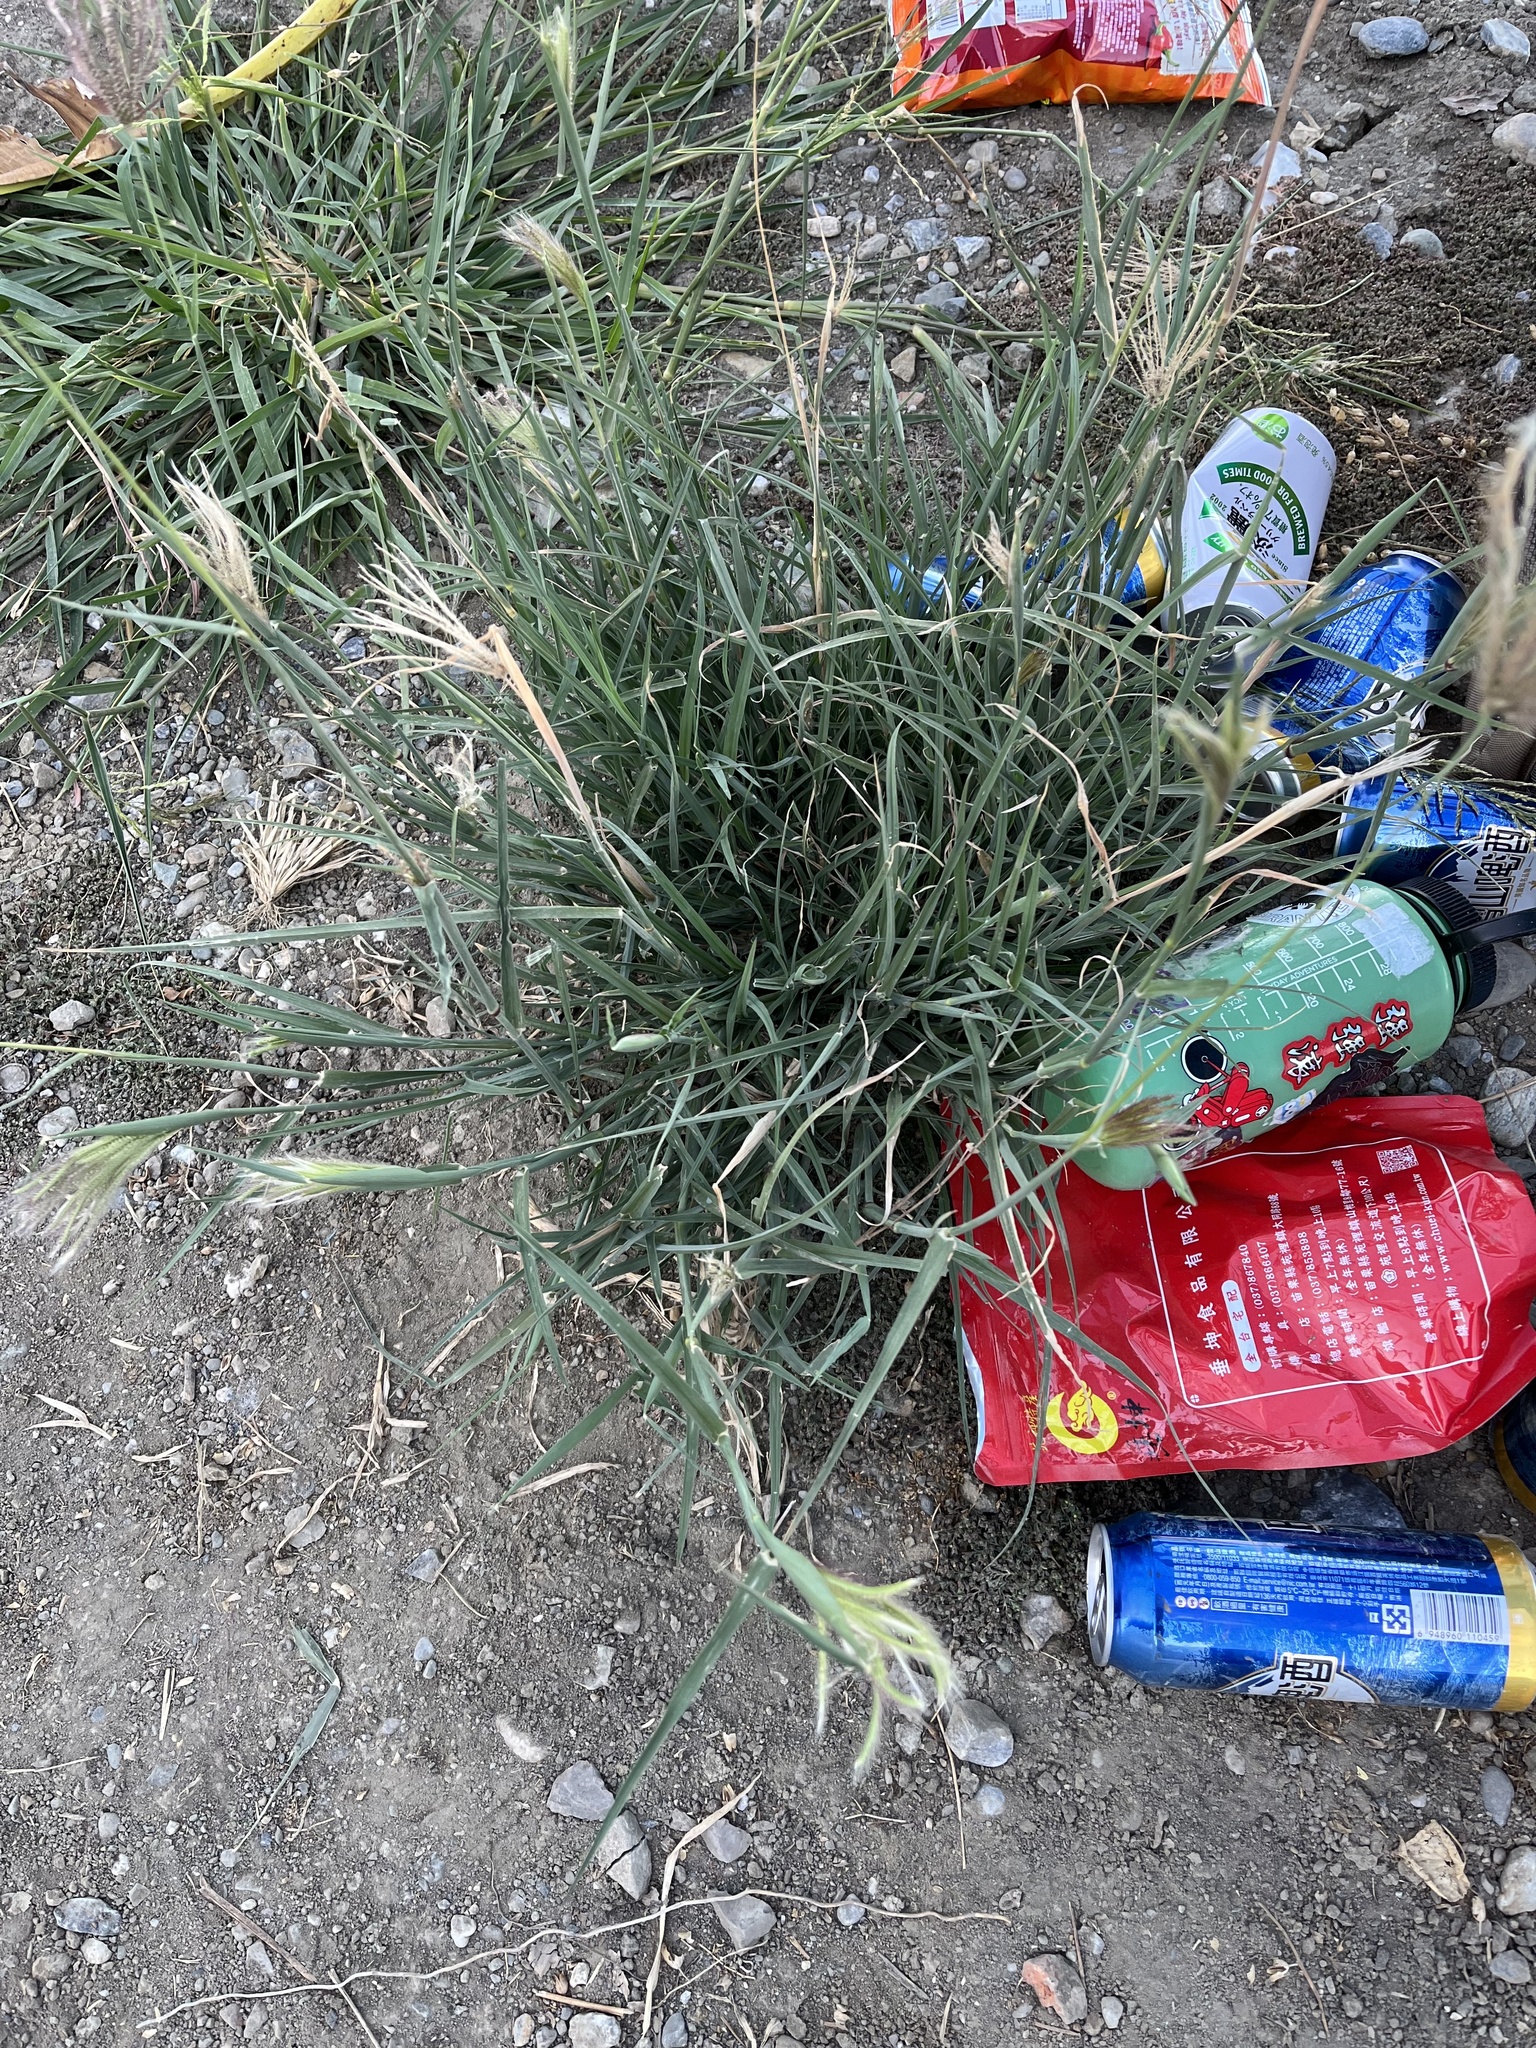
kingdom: Plantae
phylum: Tracheophyta
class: Liliopsida
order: Poales
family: Poaceae
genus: Chloris
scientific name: Chloris barbata
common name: Swollen fingergrass
